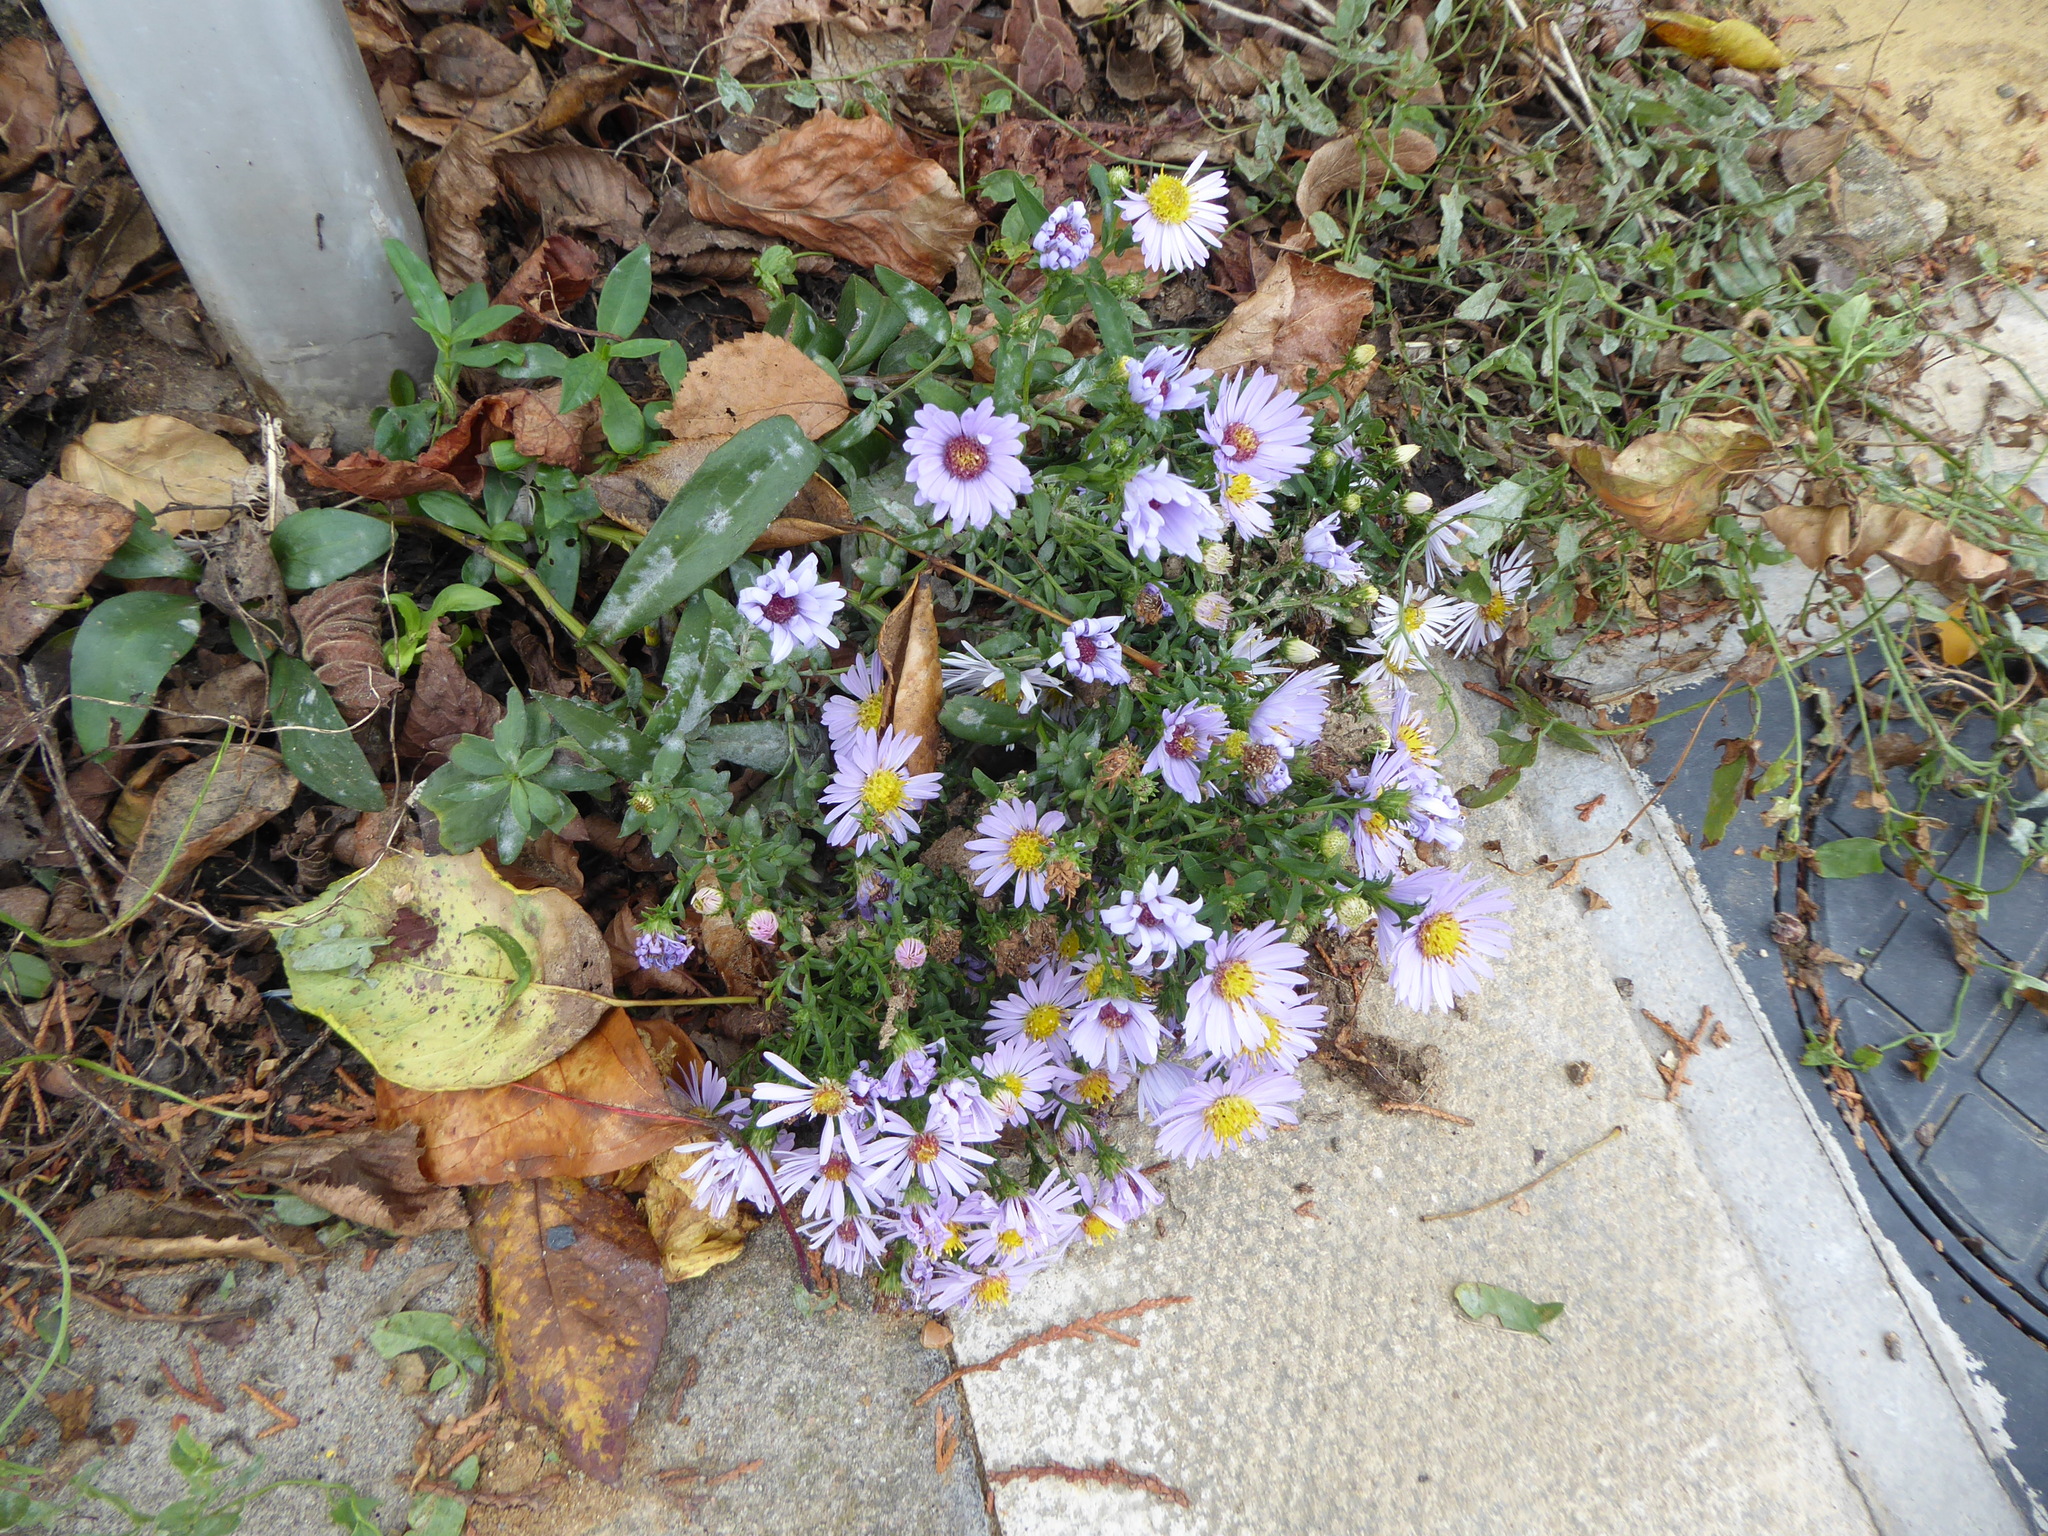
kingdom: Plantae
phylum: Tracheophyta
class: Magnoliopsida
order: Asterales
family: Asteraceae
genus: Symphyotrichum
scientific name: Symphyotrichum
